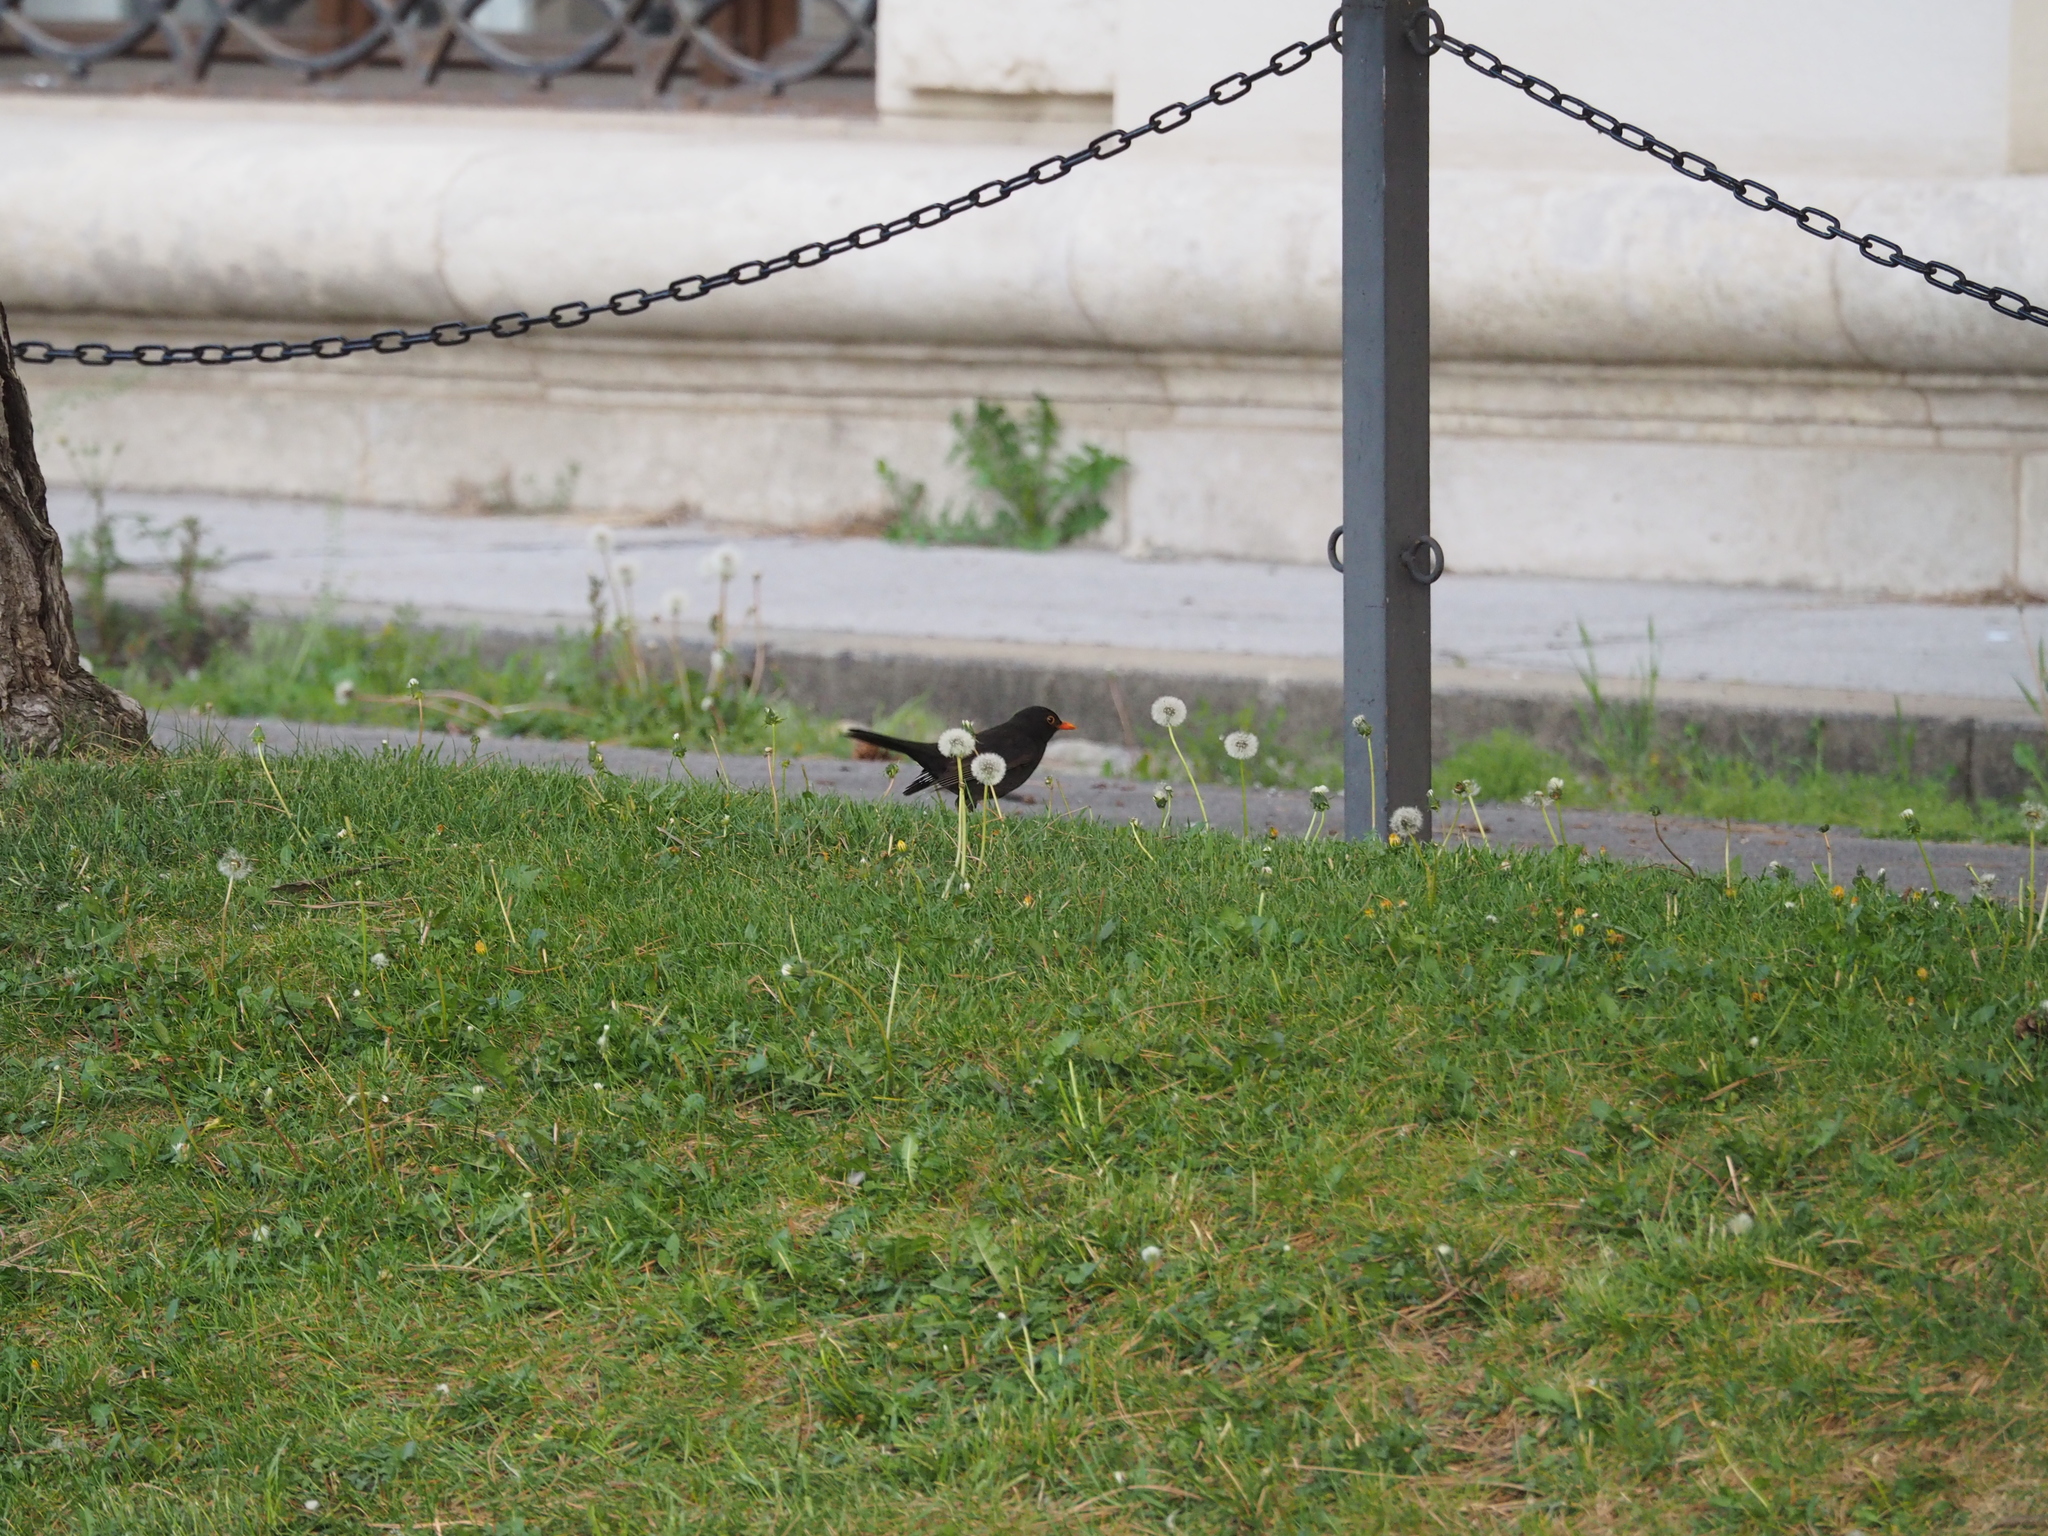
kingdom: Animalia
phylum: Chordata
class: Aves
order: Passeriformes
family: Turdidae
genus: Turdus
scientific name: Turdus merula
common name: Common blackbird
